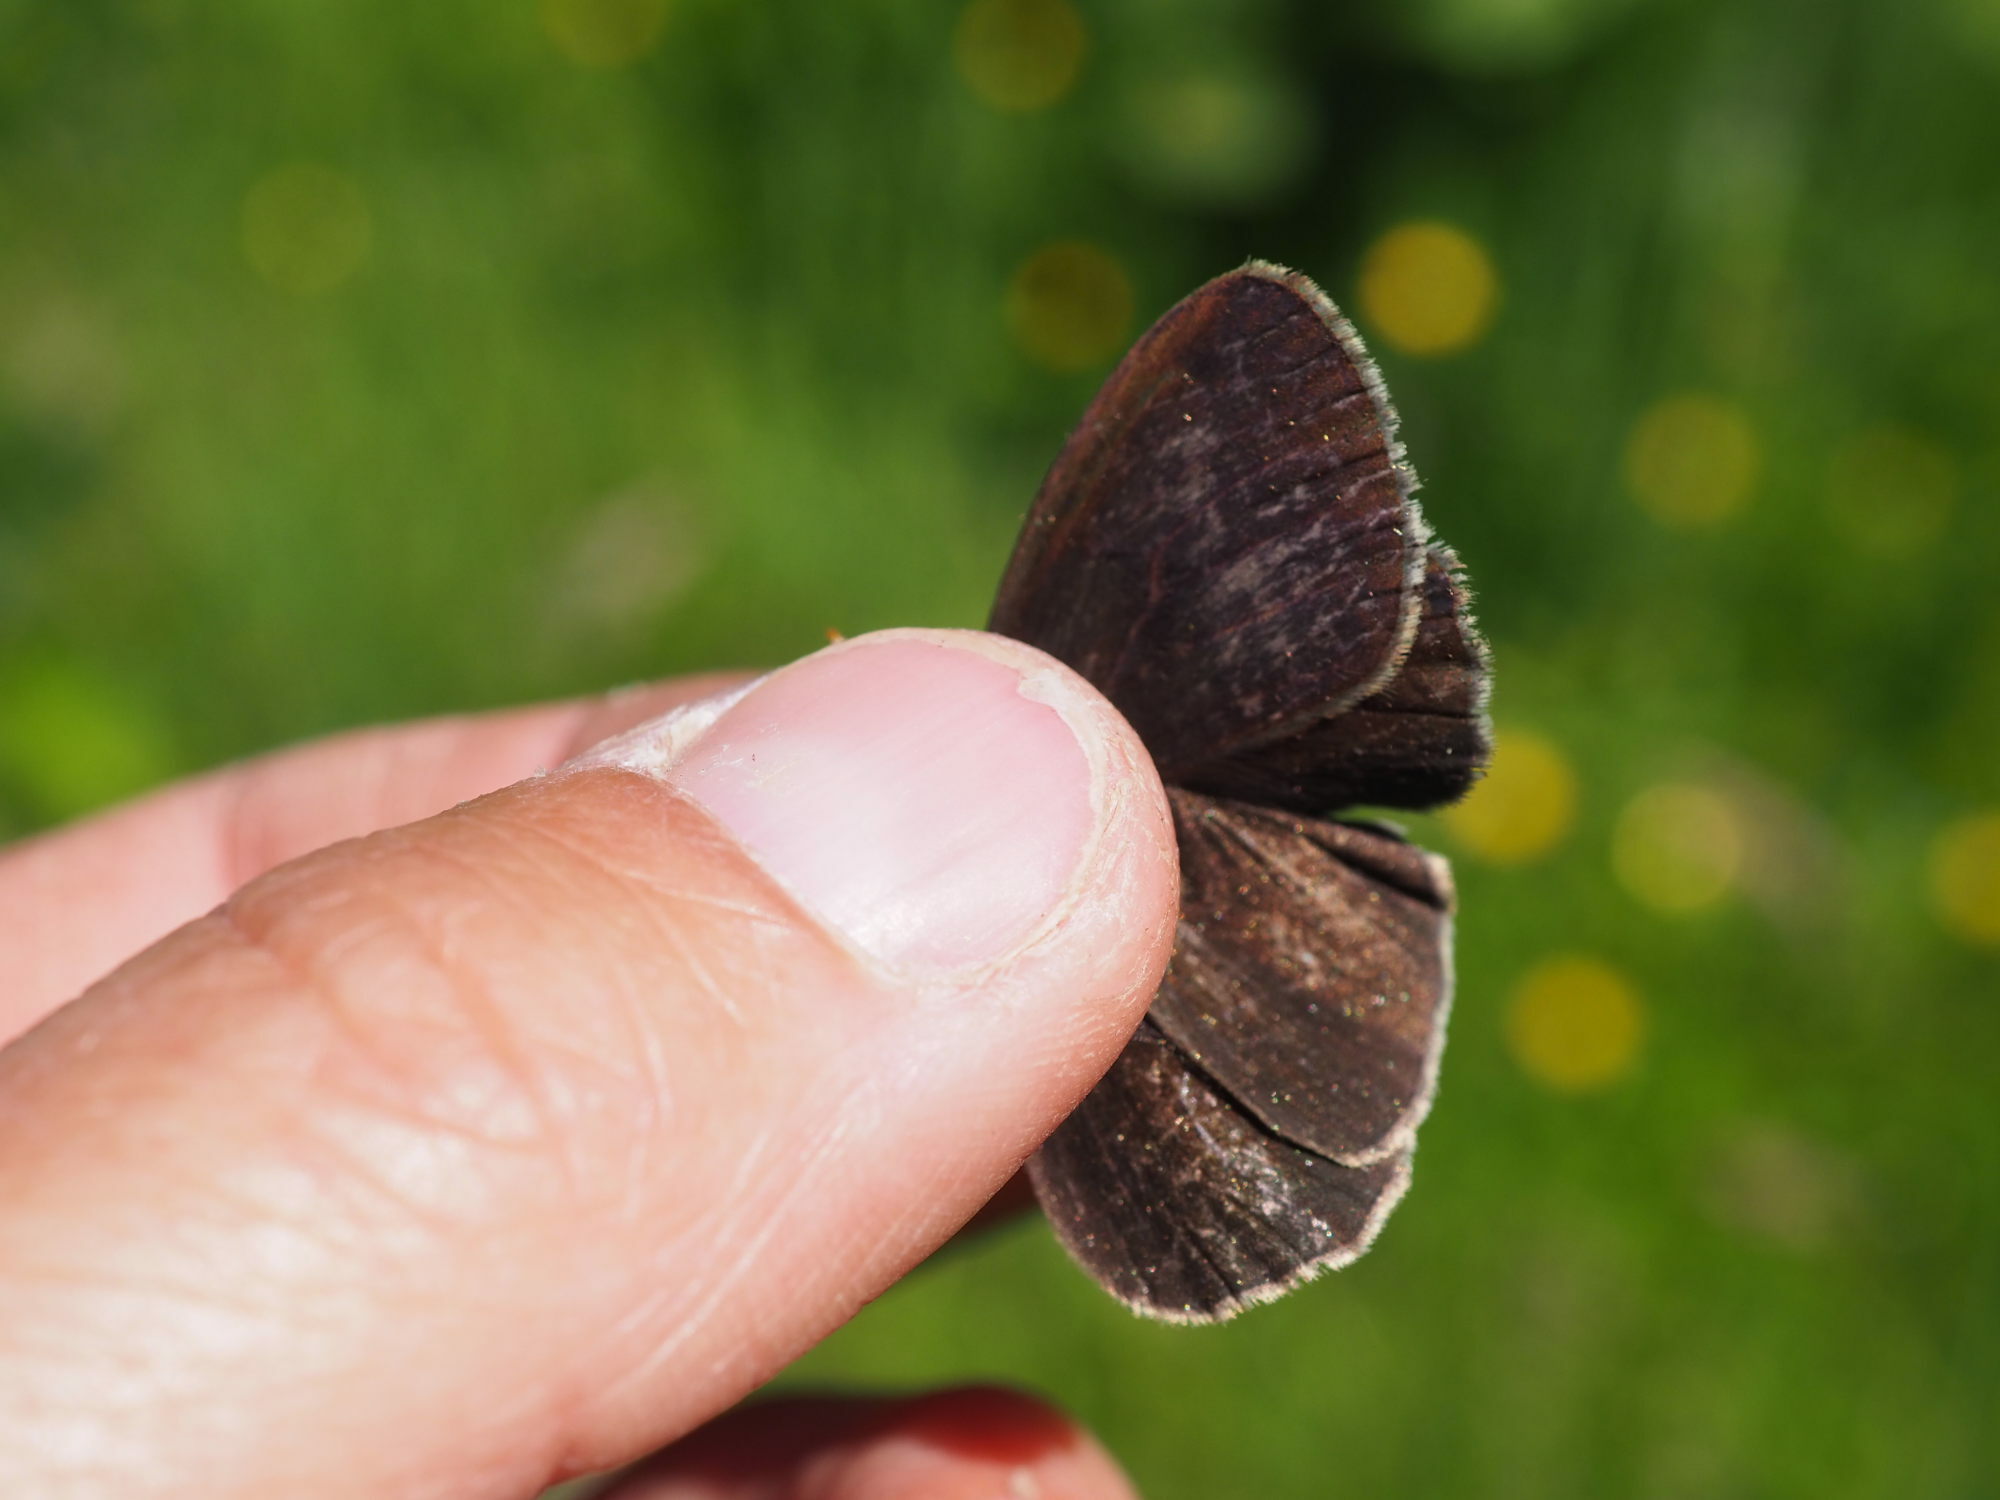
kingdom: Animalia
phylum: Arthropoda
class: Insecta
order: Lepidoptera
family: Nymphalidae
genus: Aphantopus
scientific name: Aphantopus hyperantus
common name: Ringlet
